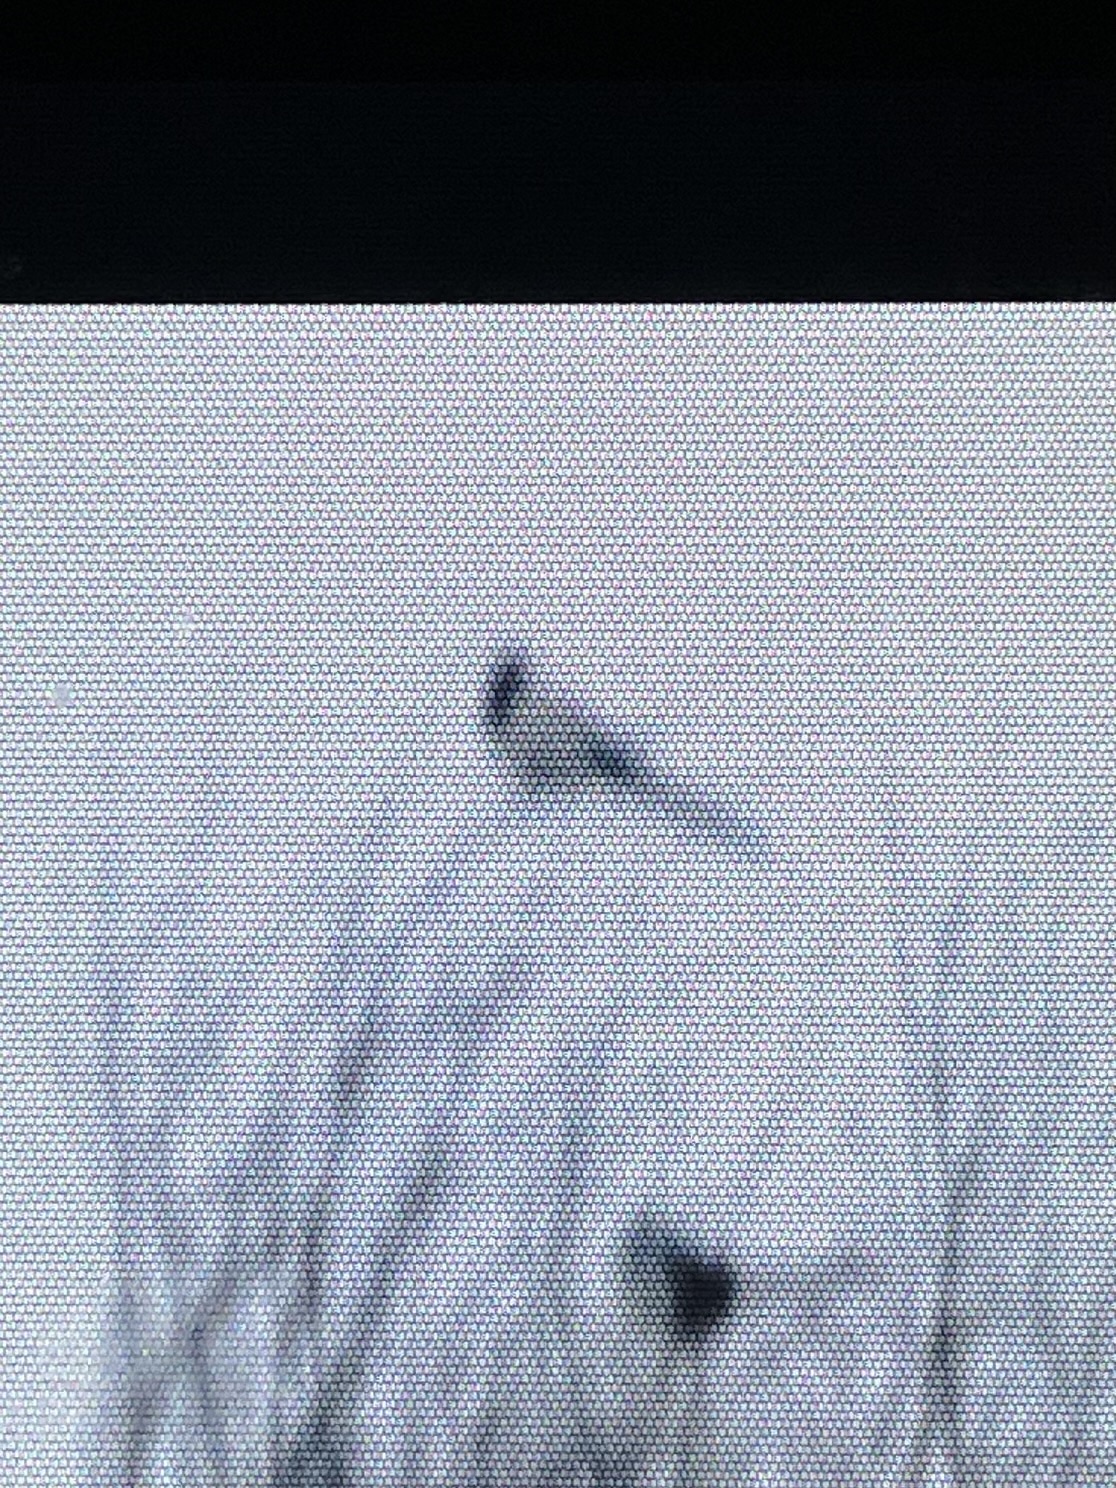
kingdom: Animalia
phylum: Chordata
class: Aves
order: Passeriformes
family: Corvidae
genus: Pica
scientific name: Pica pica
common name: Eurasian magpie
